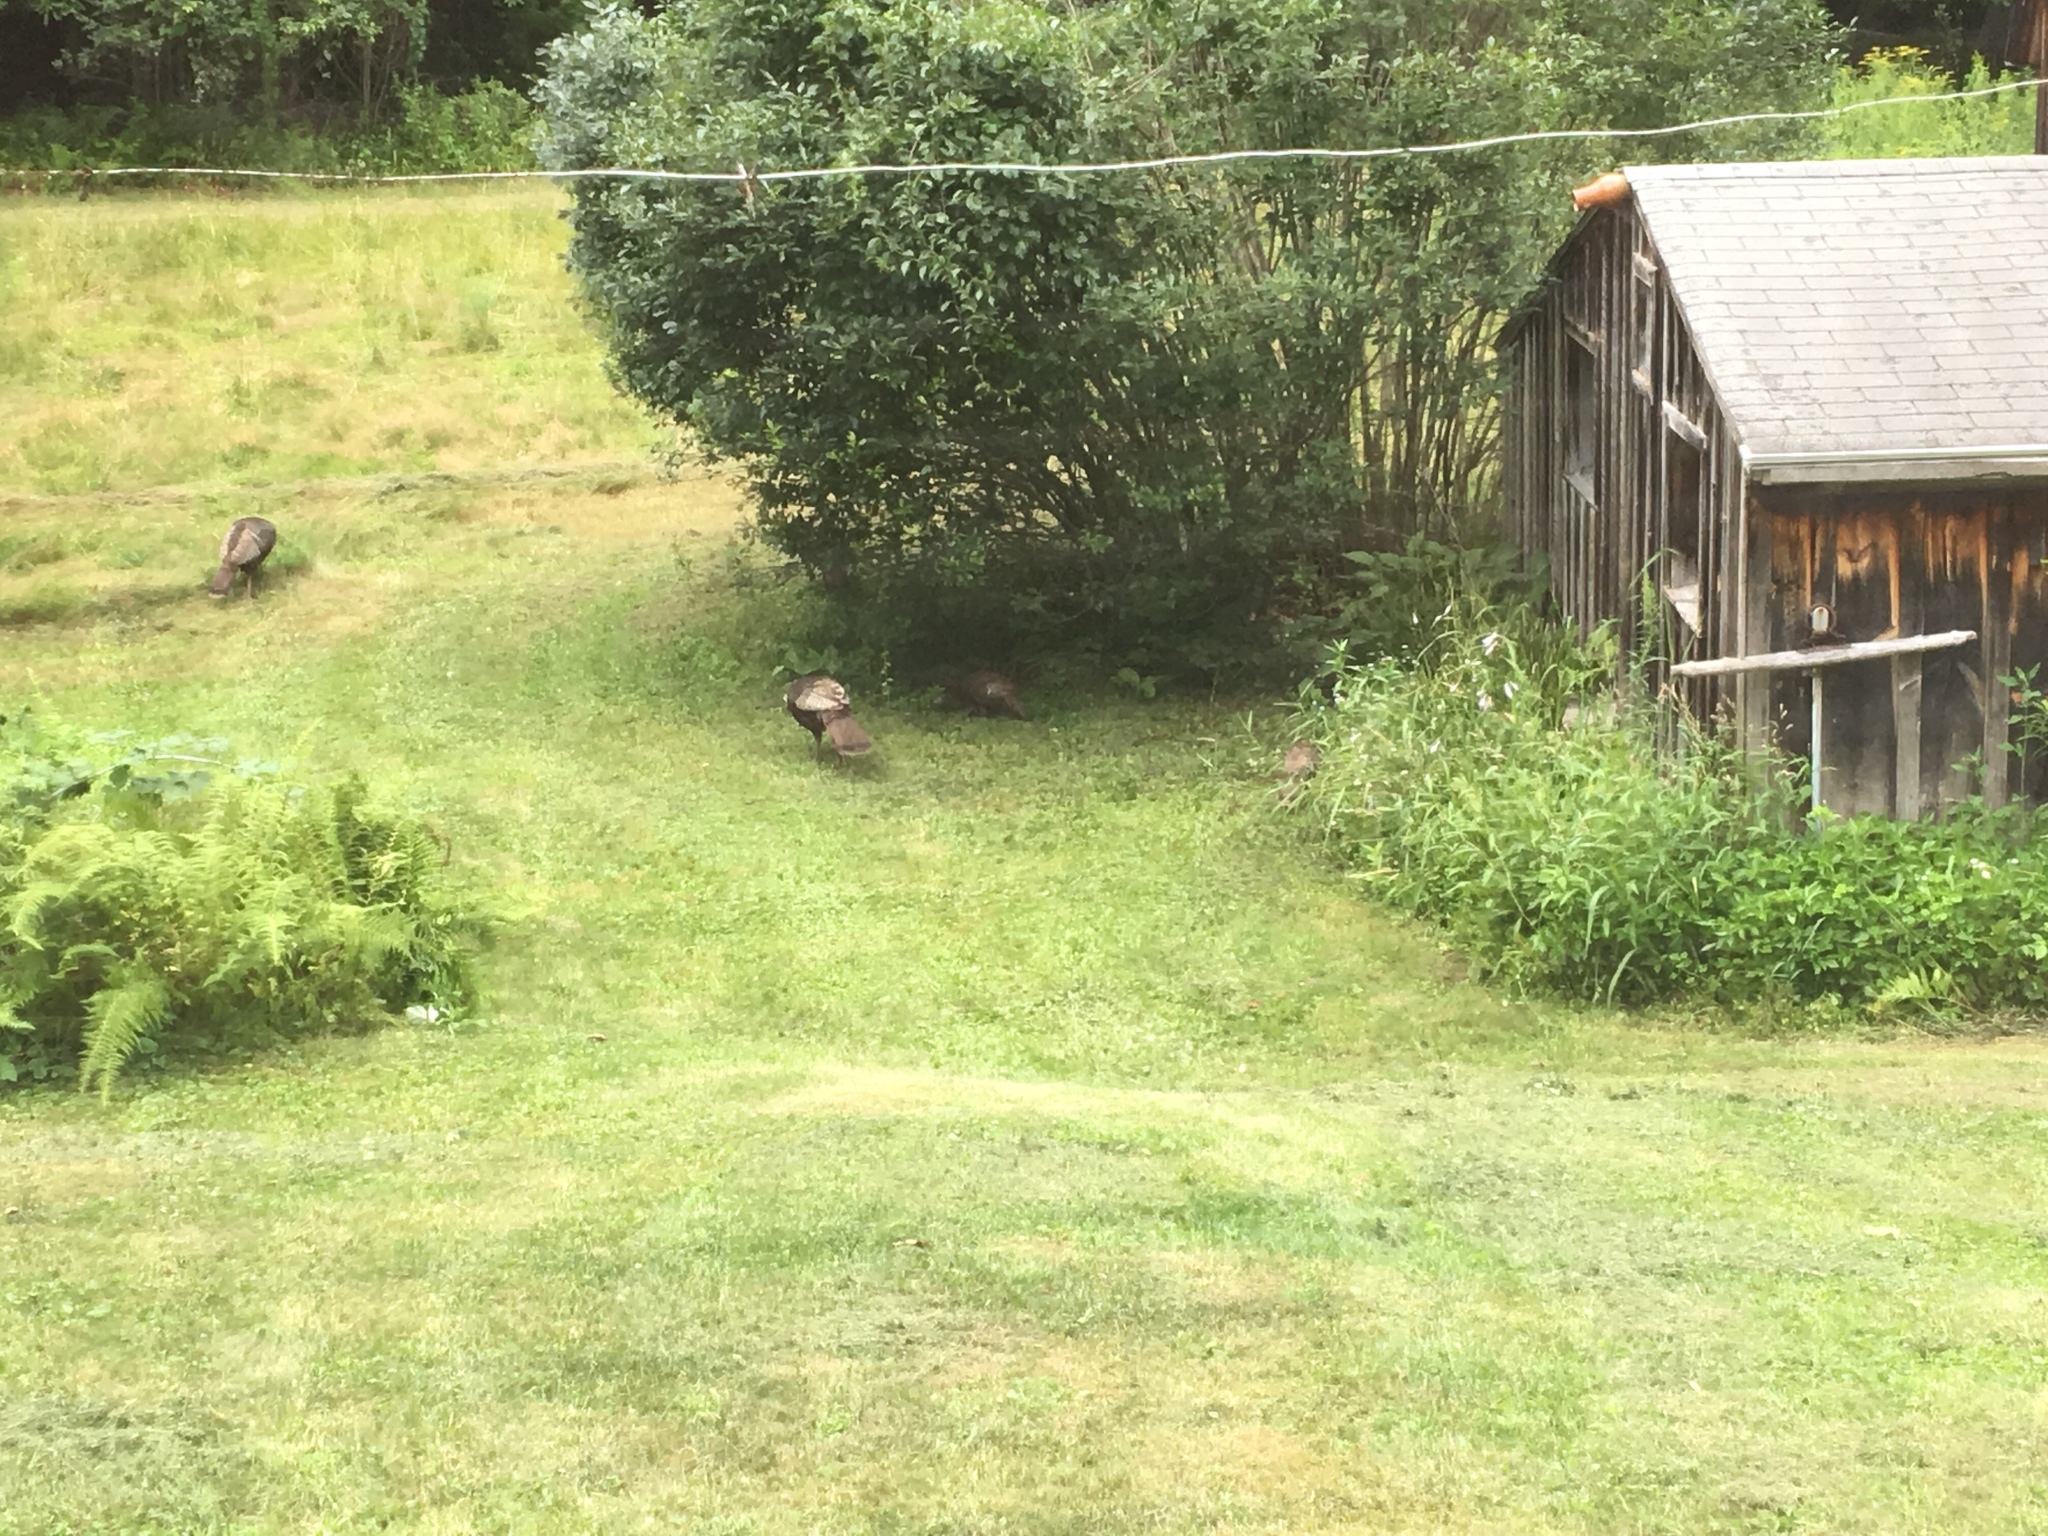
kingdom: Animalia
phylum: Chordata
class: Aves
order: Galliformes
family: Phasianidae
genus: Meleagris
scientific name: Meleagris gallopavo
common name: Wild turkey
